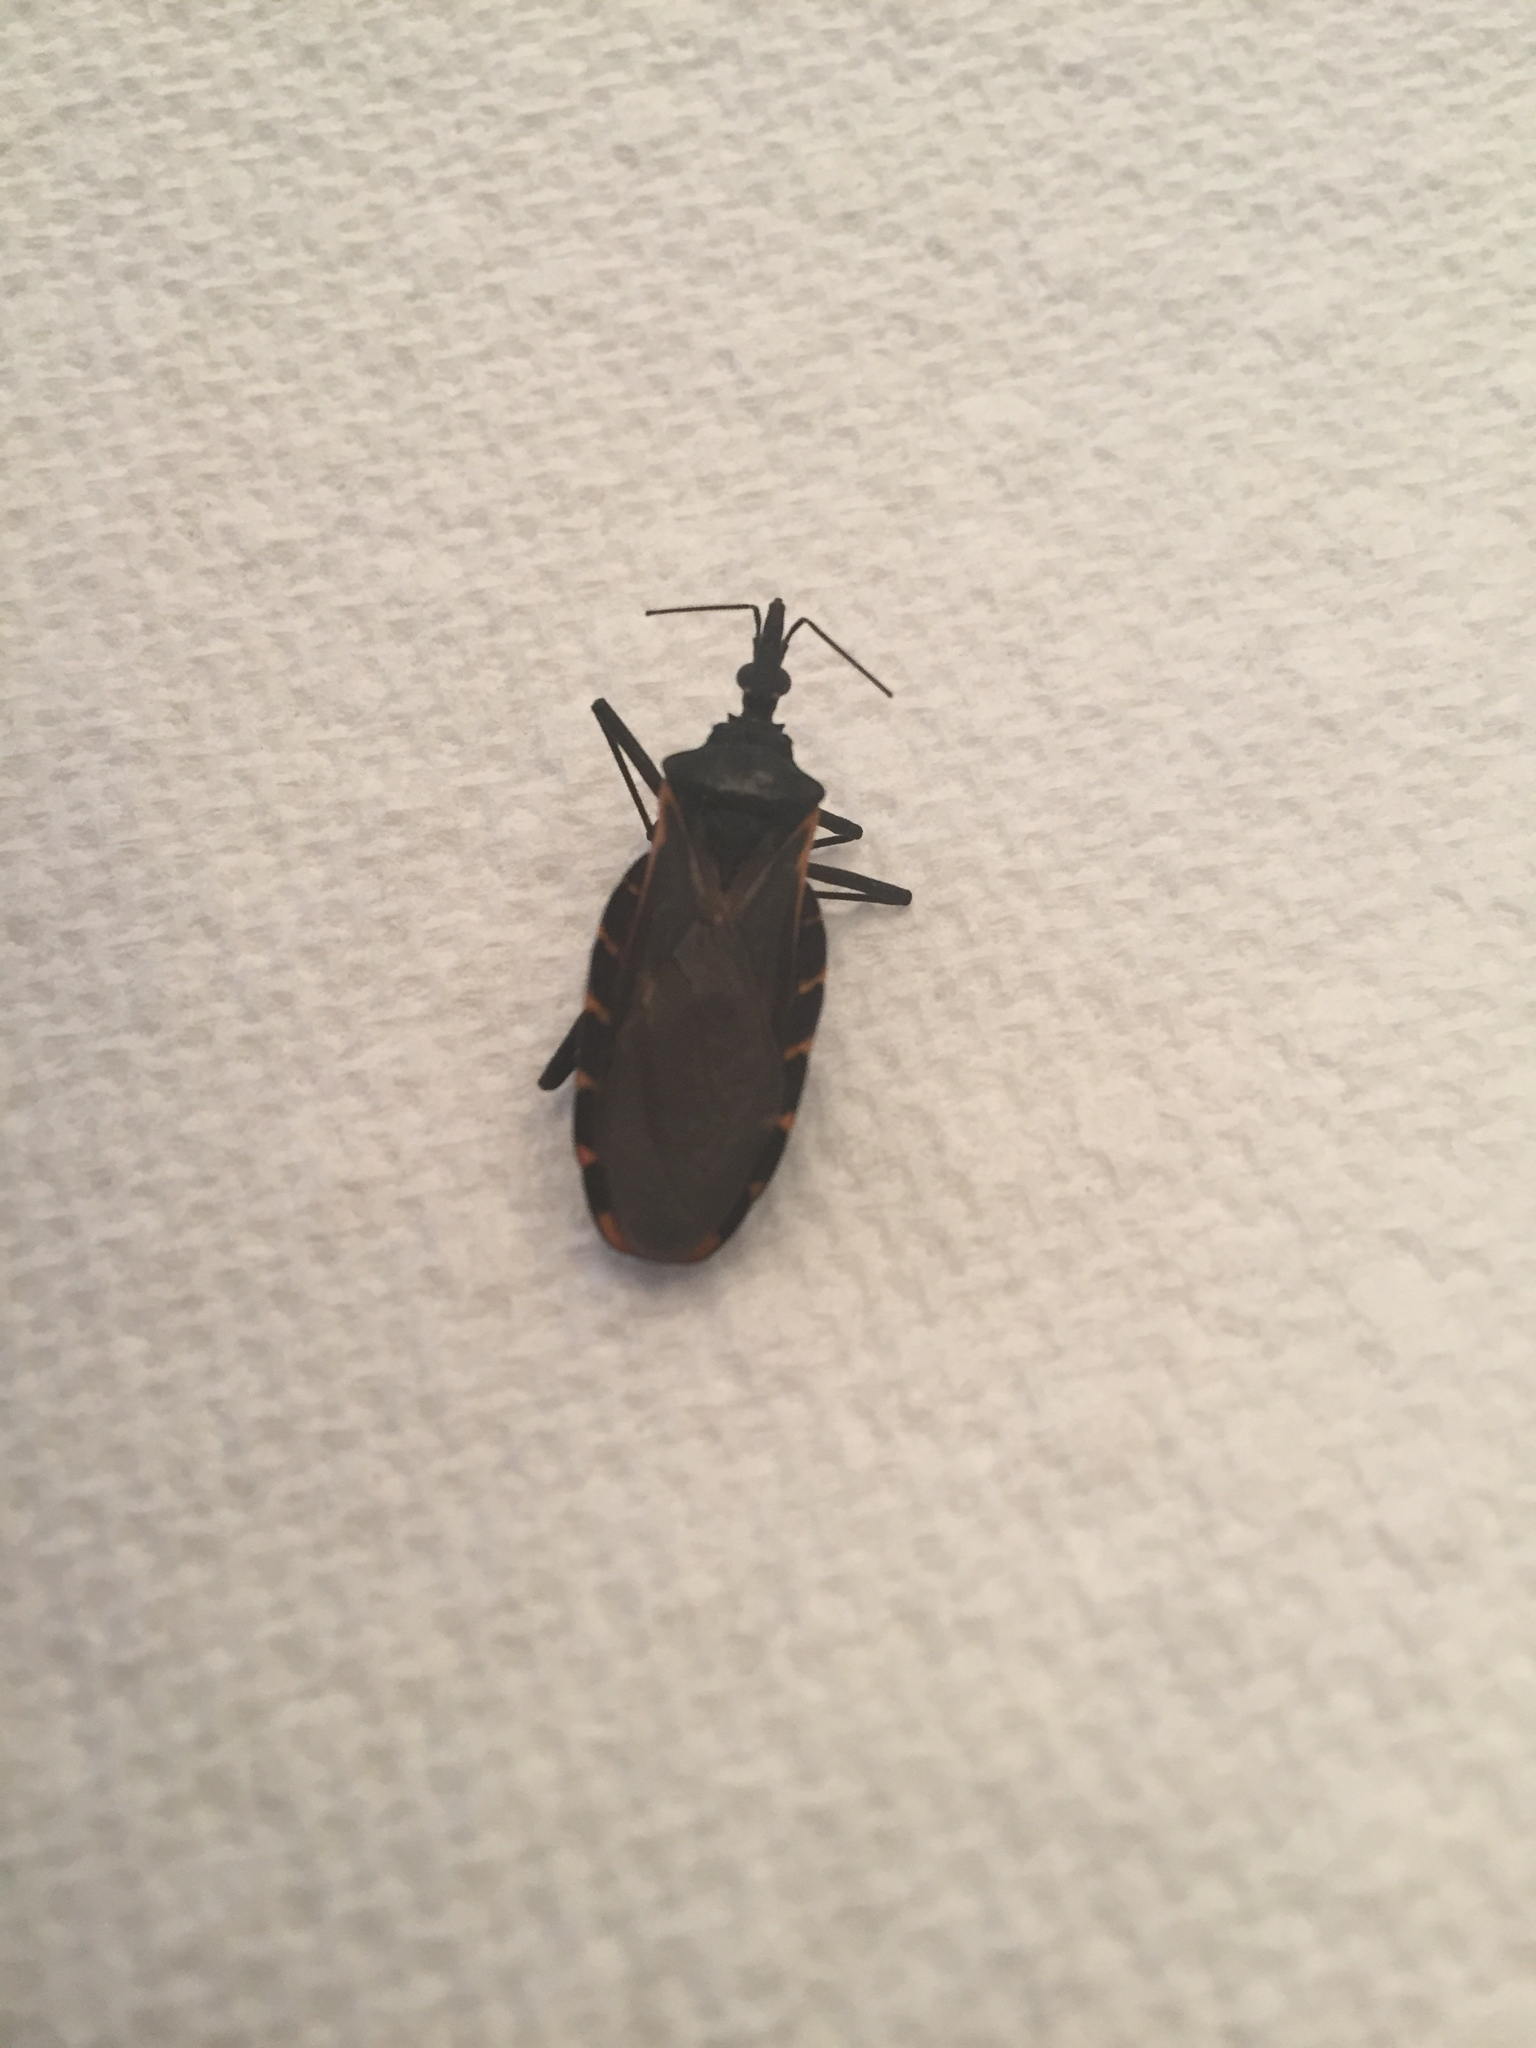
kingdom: Animalia
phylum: Arthropoda
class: Insecta
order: Hemiptera
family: Reduviidae
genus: Triatoma
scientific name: Triatoma gerstaeckeri
